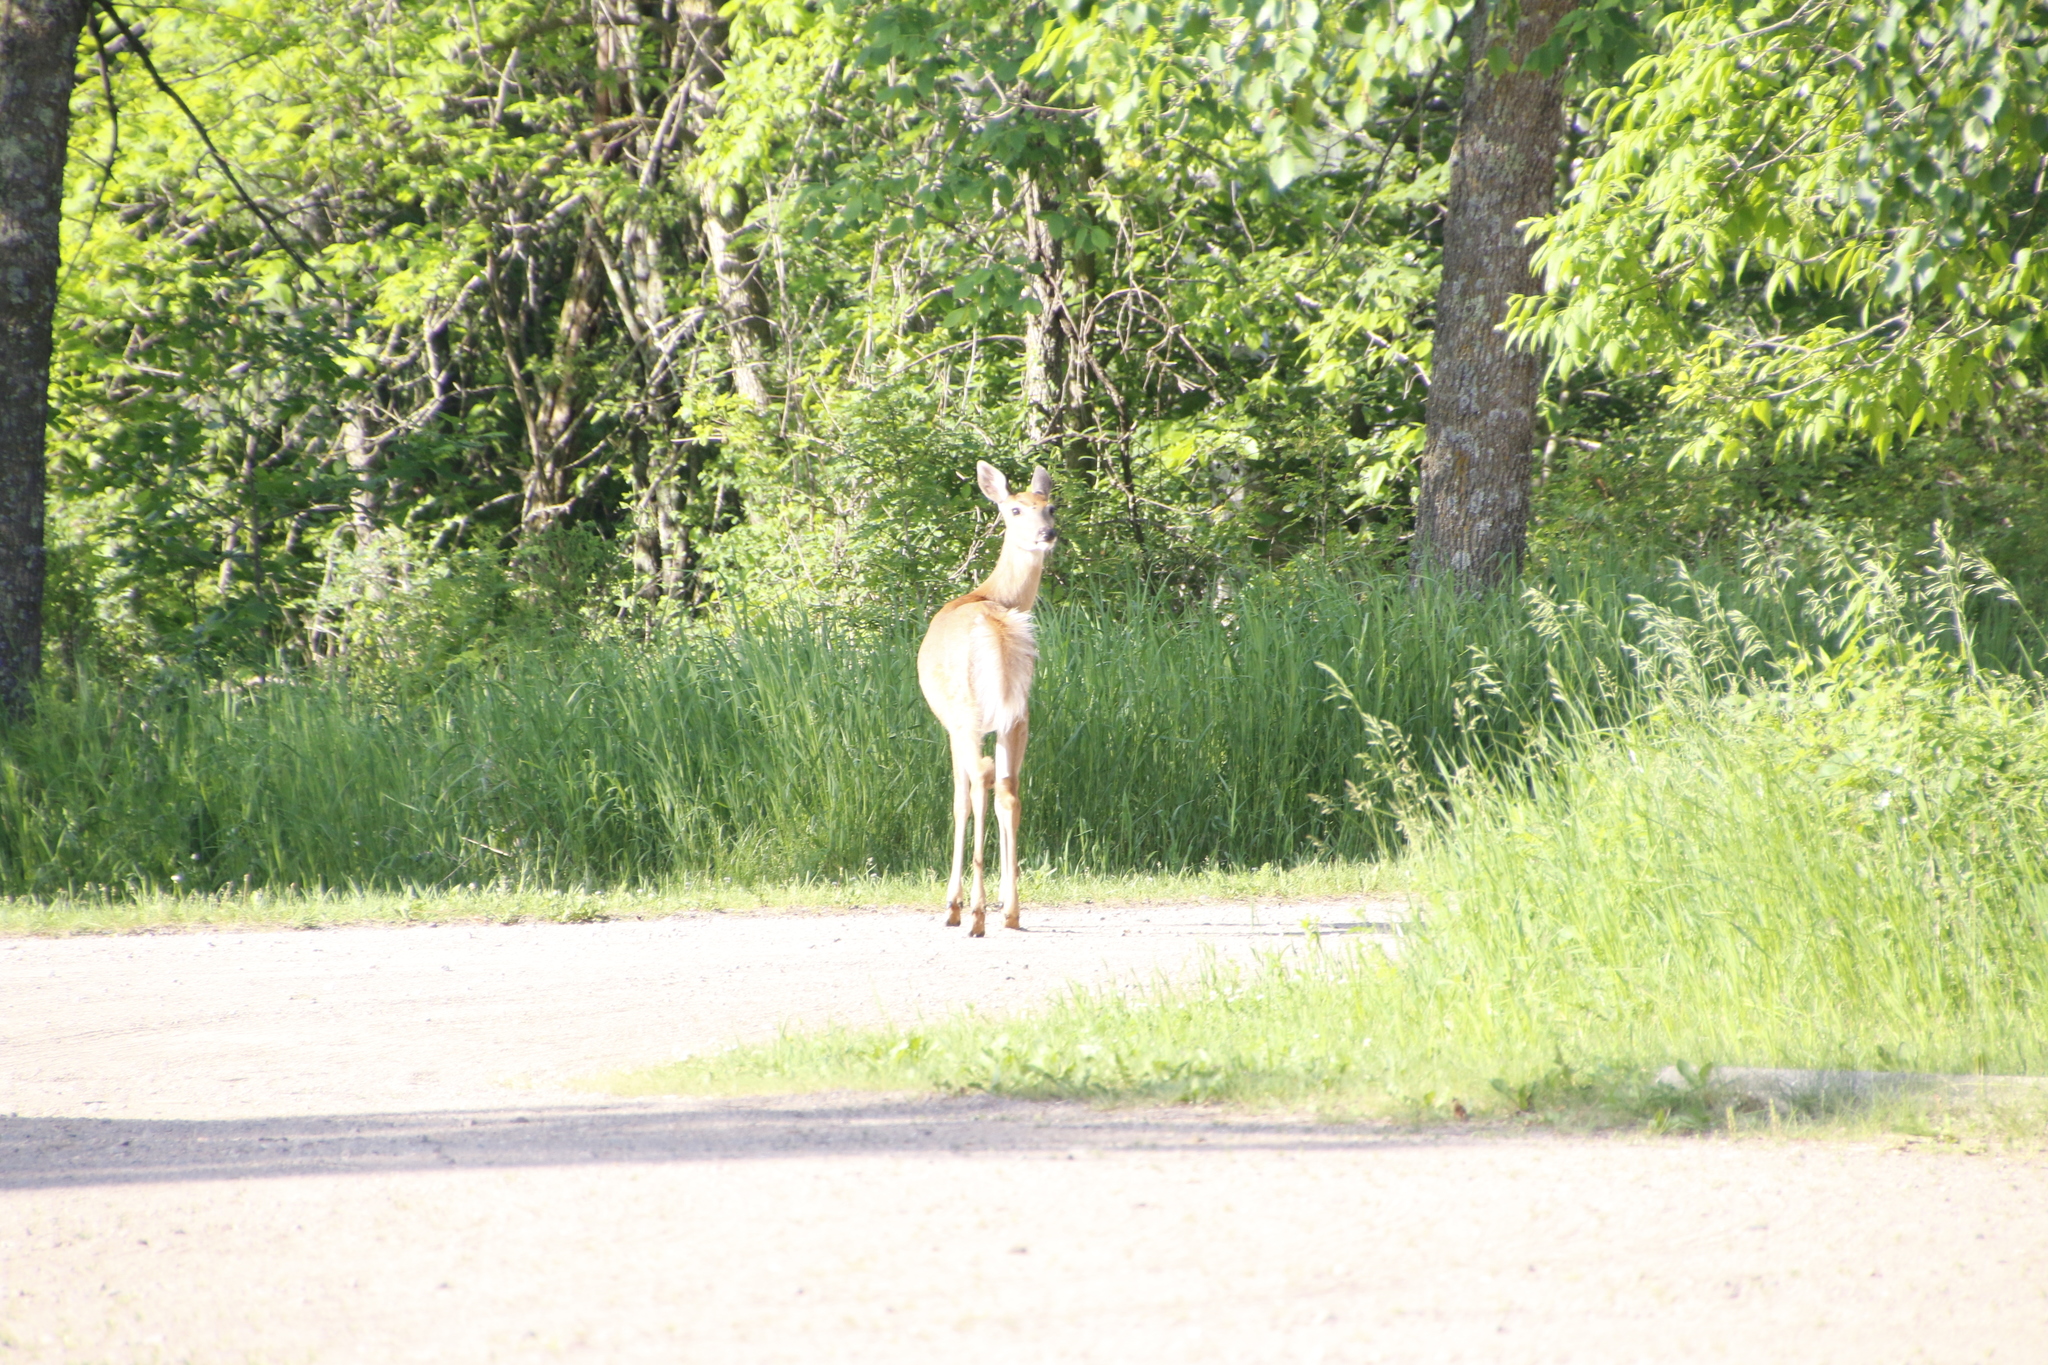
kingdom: Animalia
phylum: Chordata
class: Mammalia
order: Artiodactyla
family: Cervidae
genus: Odocoileus
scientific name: Odocoileus virginianus
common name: White-tailed deer
